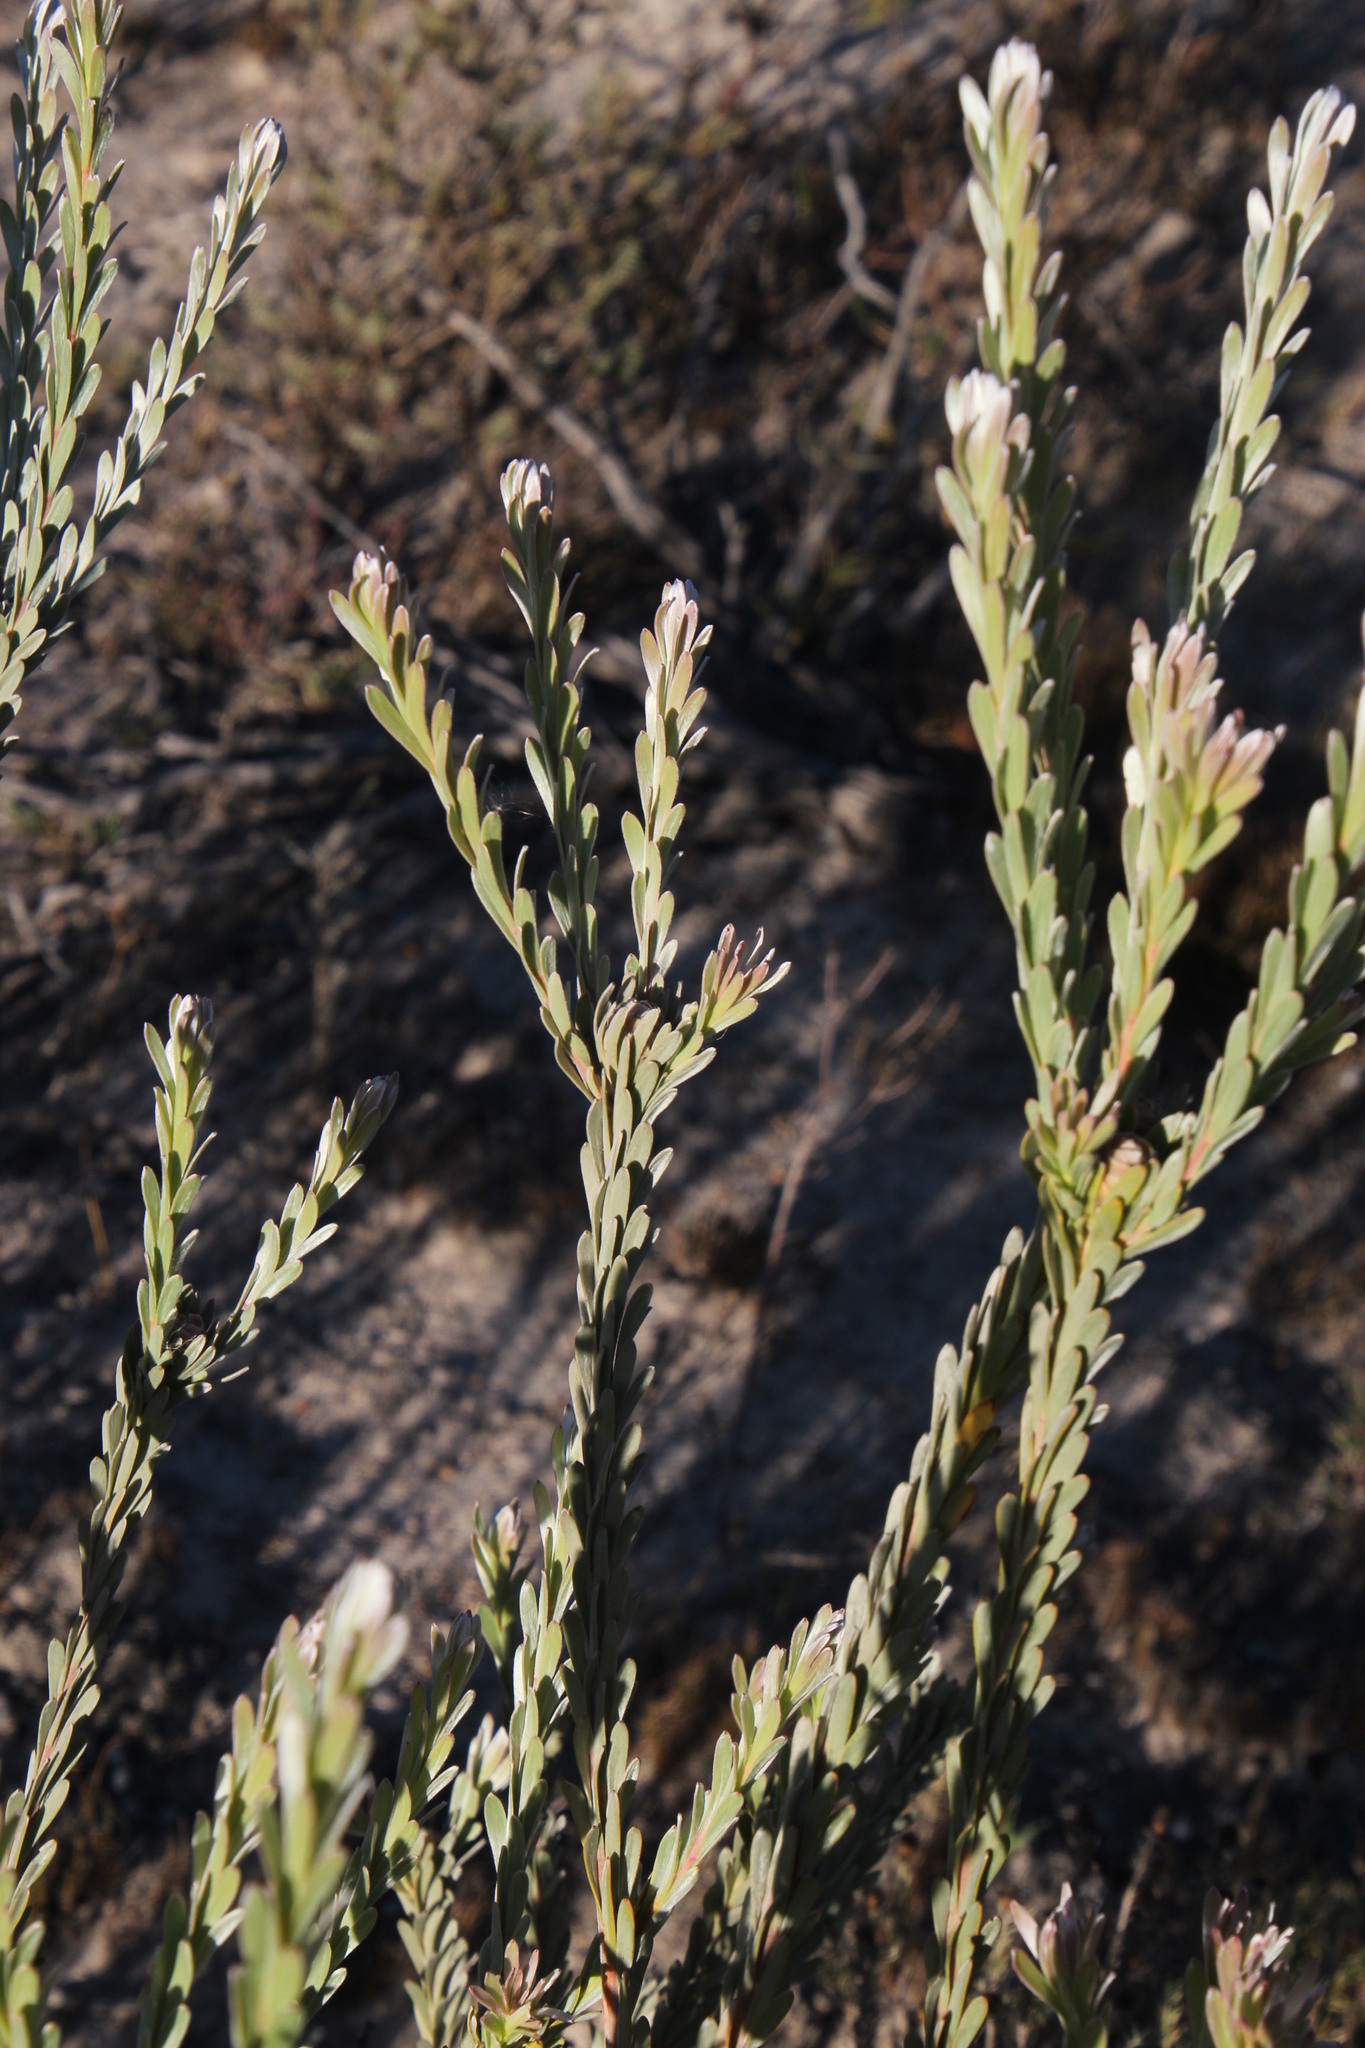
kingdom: Plantae
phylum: Tracheophyta
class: Magnoliopsida
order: Proteales
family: Proteaceae
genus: Leucadendron
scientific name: Leucadendron verticillatum
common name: Klapmuts conebush
